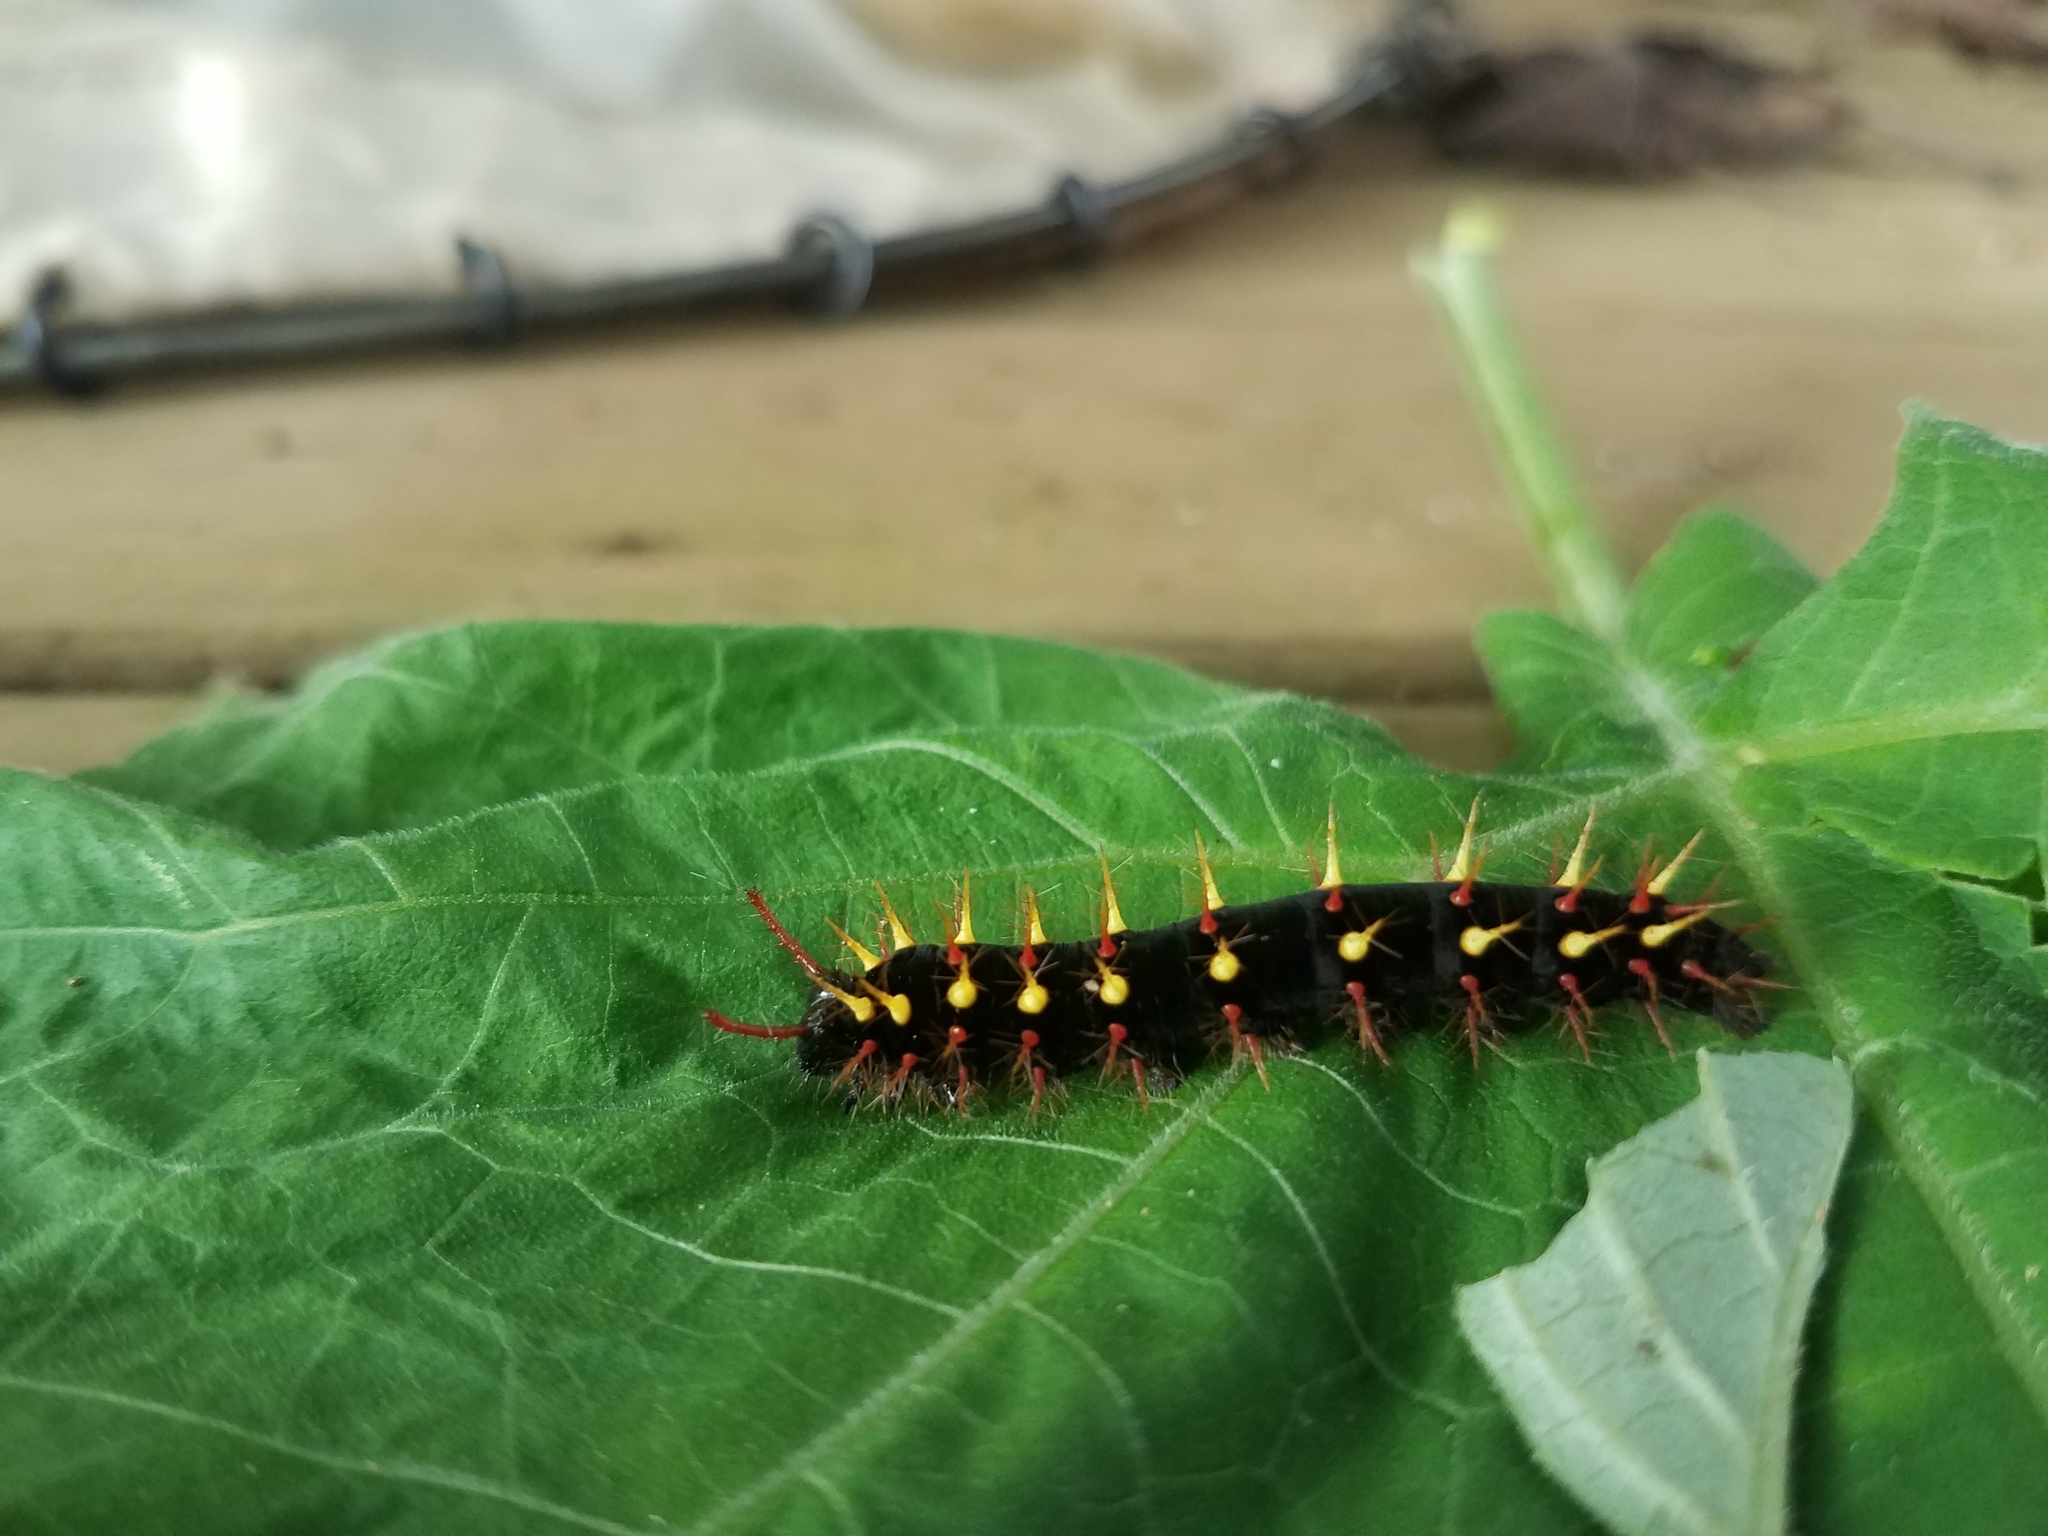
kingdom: Animalia
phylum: Arthropoda
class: Insecta
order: Lepidoptera
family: Nymphalidae
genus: Siproeta
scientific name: Siproeta epaphus
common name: Rusty-tipped page
